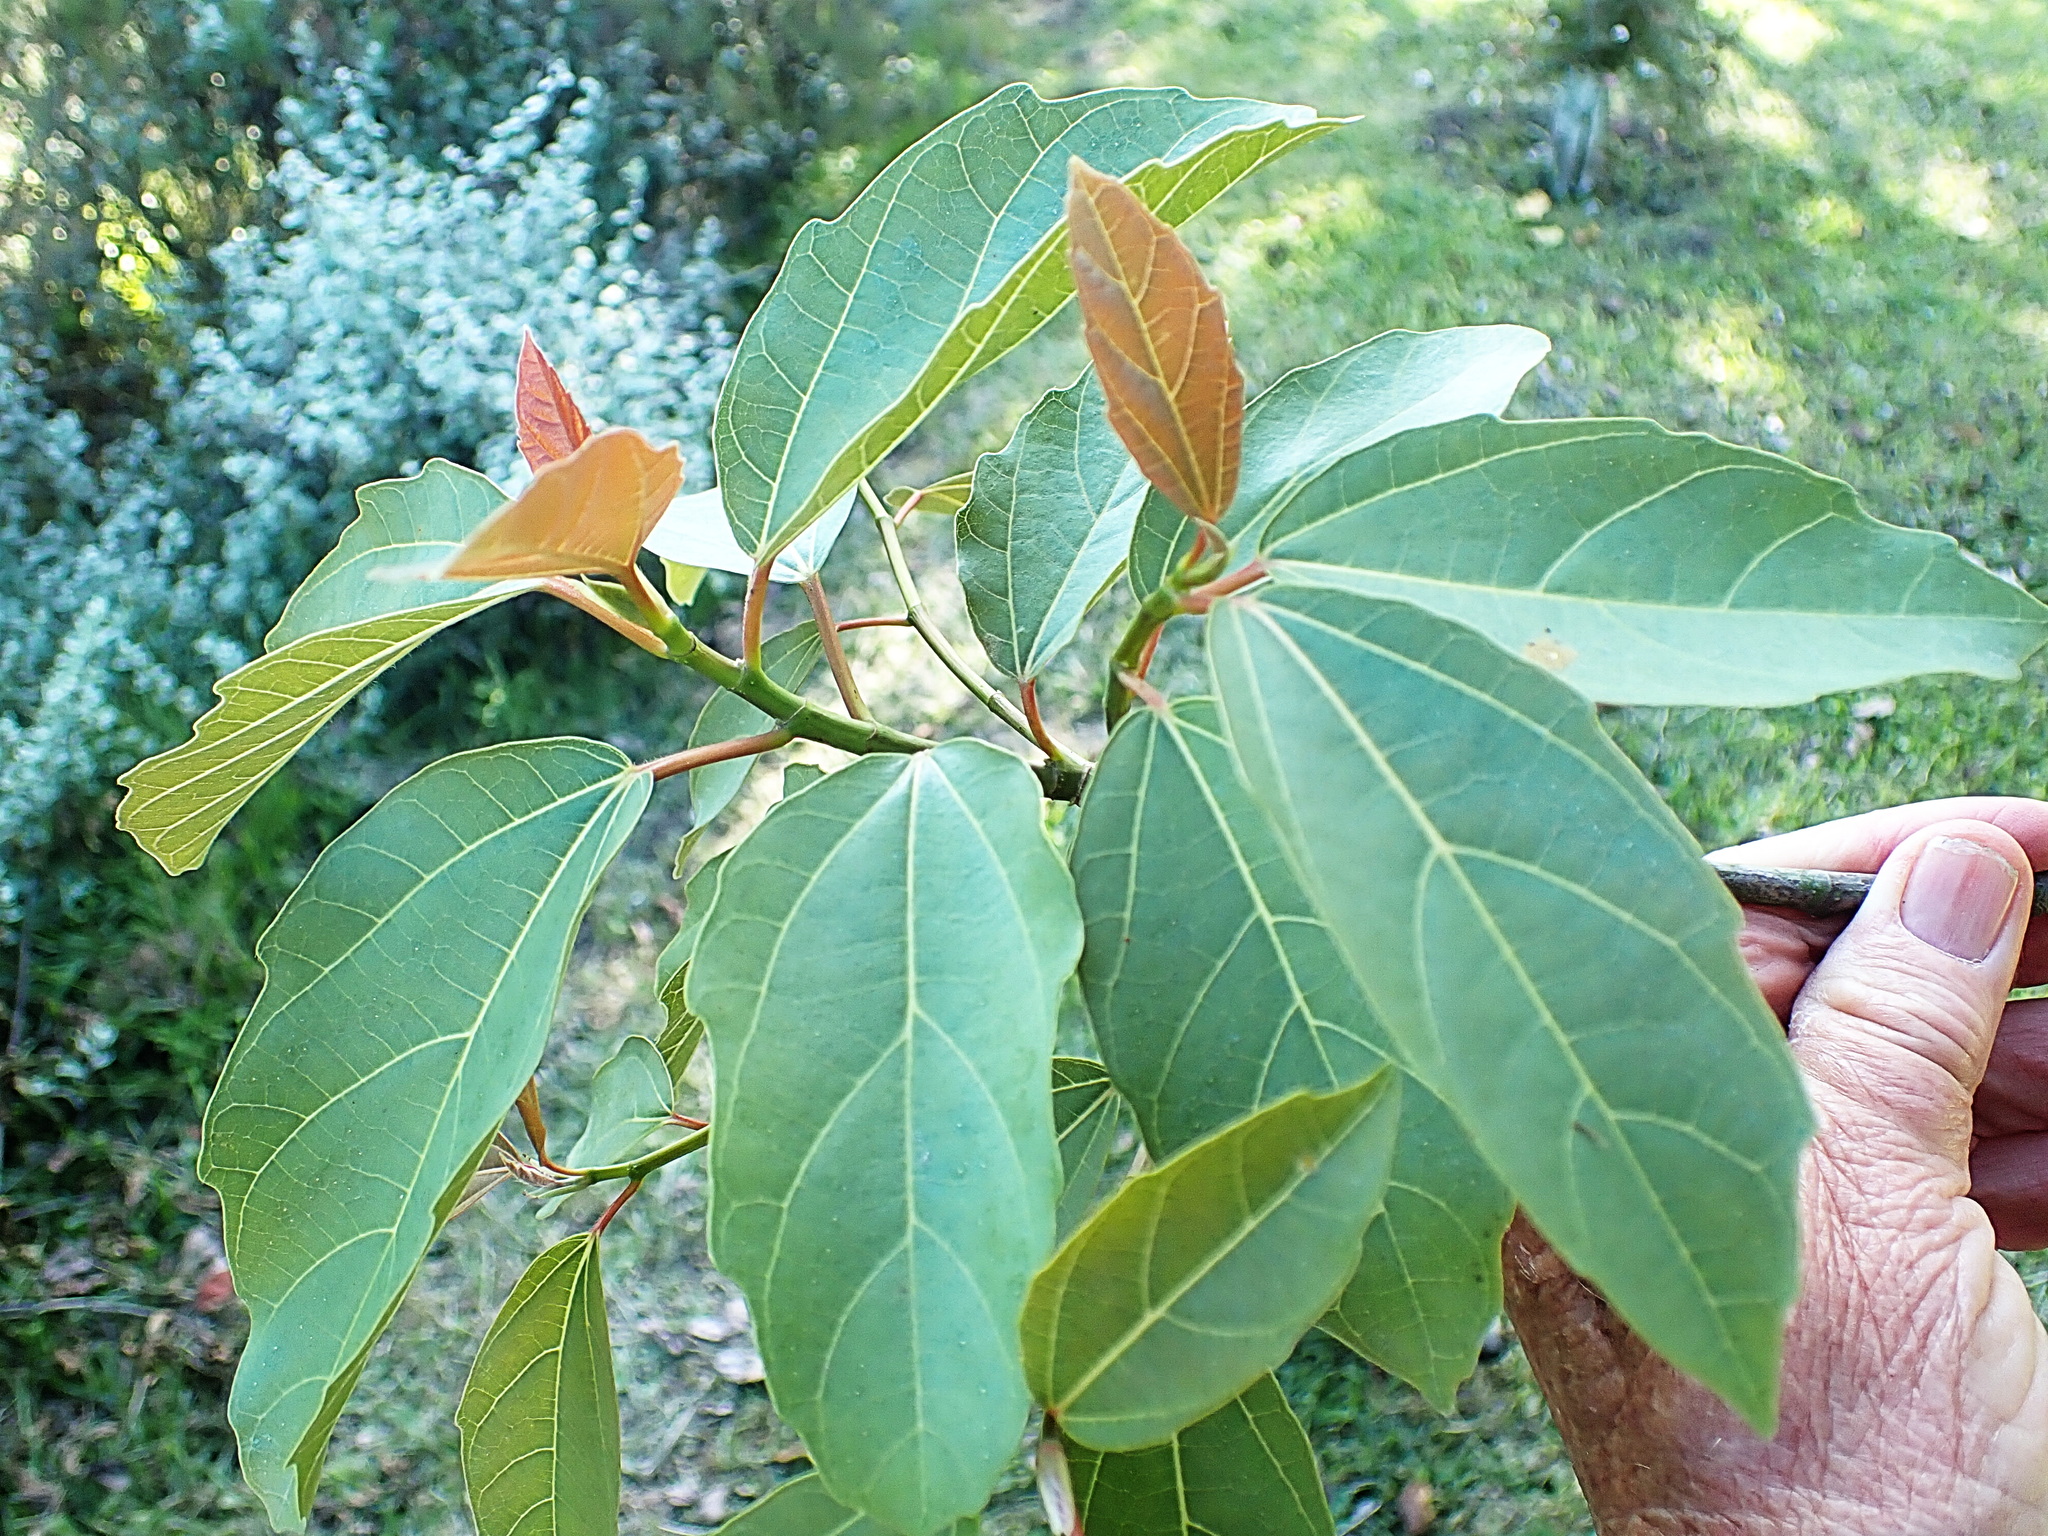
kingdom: Plantae
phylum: Tracheophyta
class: Magnoliopsida
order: Rosales
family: Moraceae
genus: Ficus
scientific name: Ficus sur
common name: Cape fig
